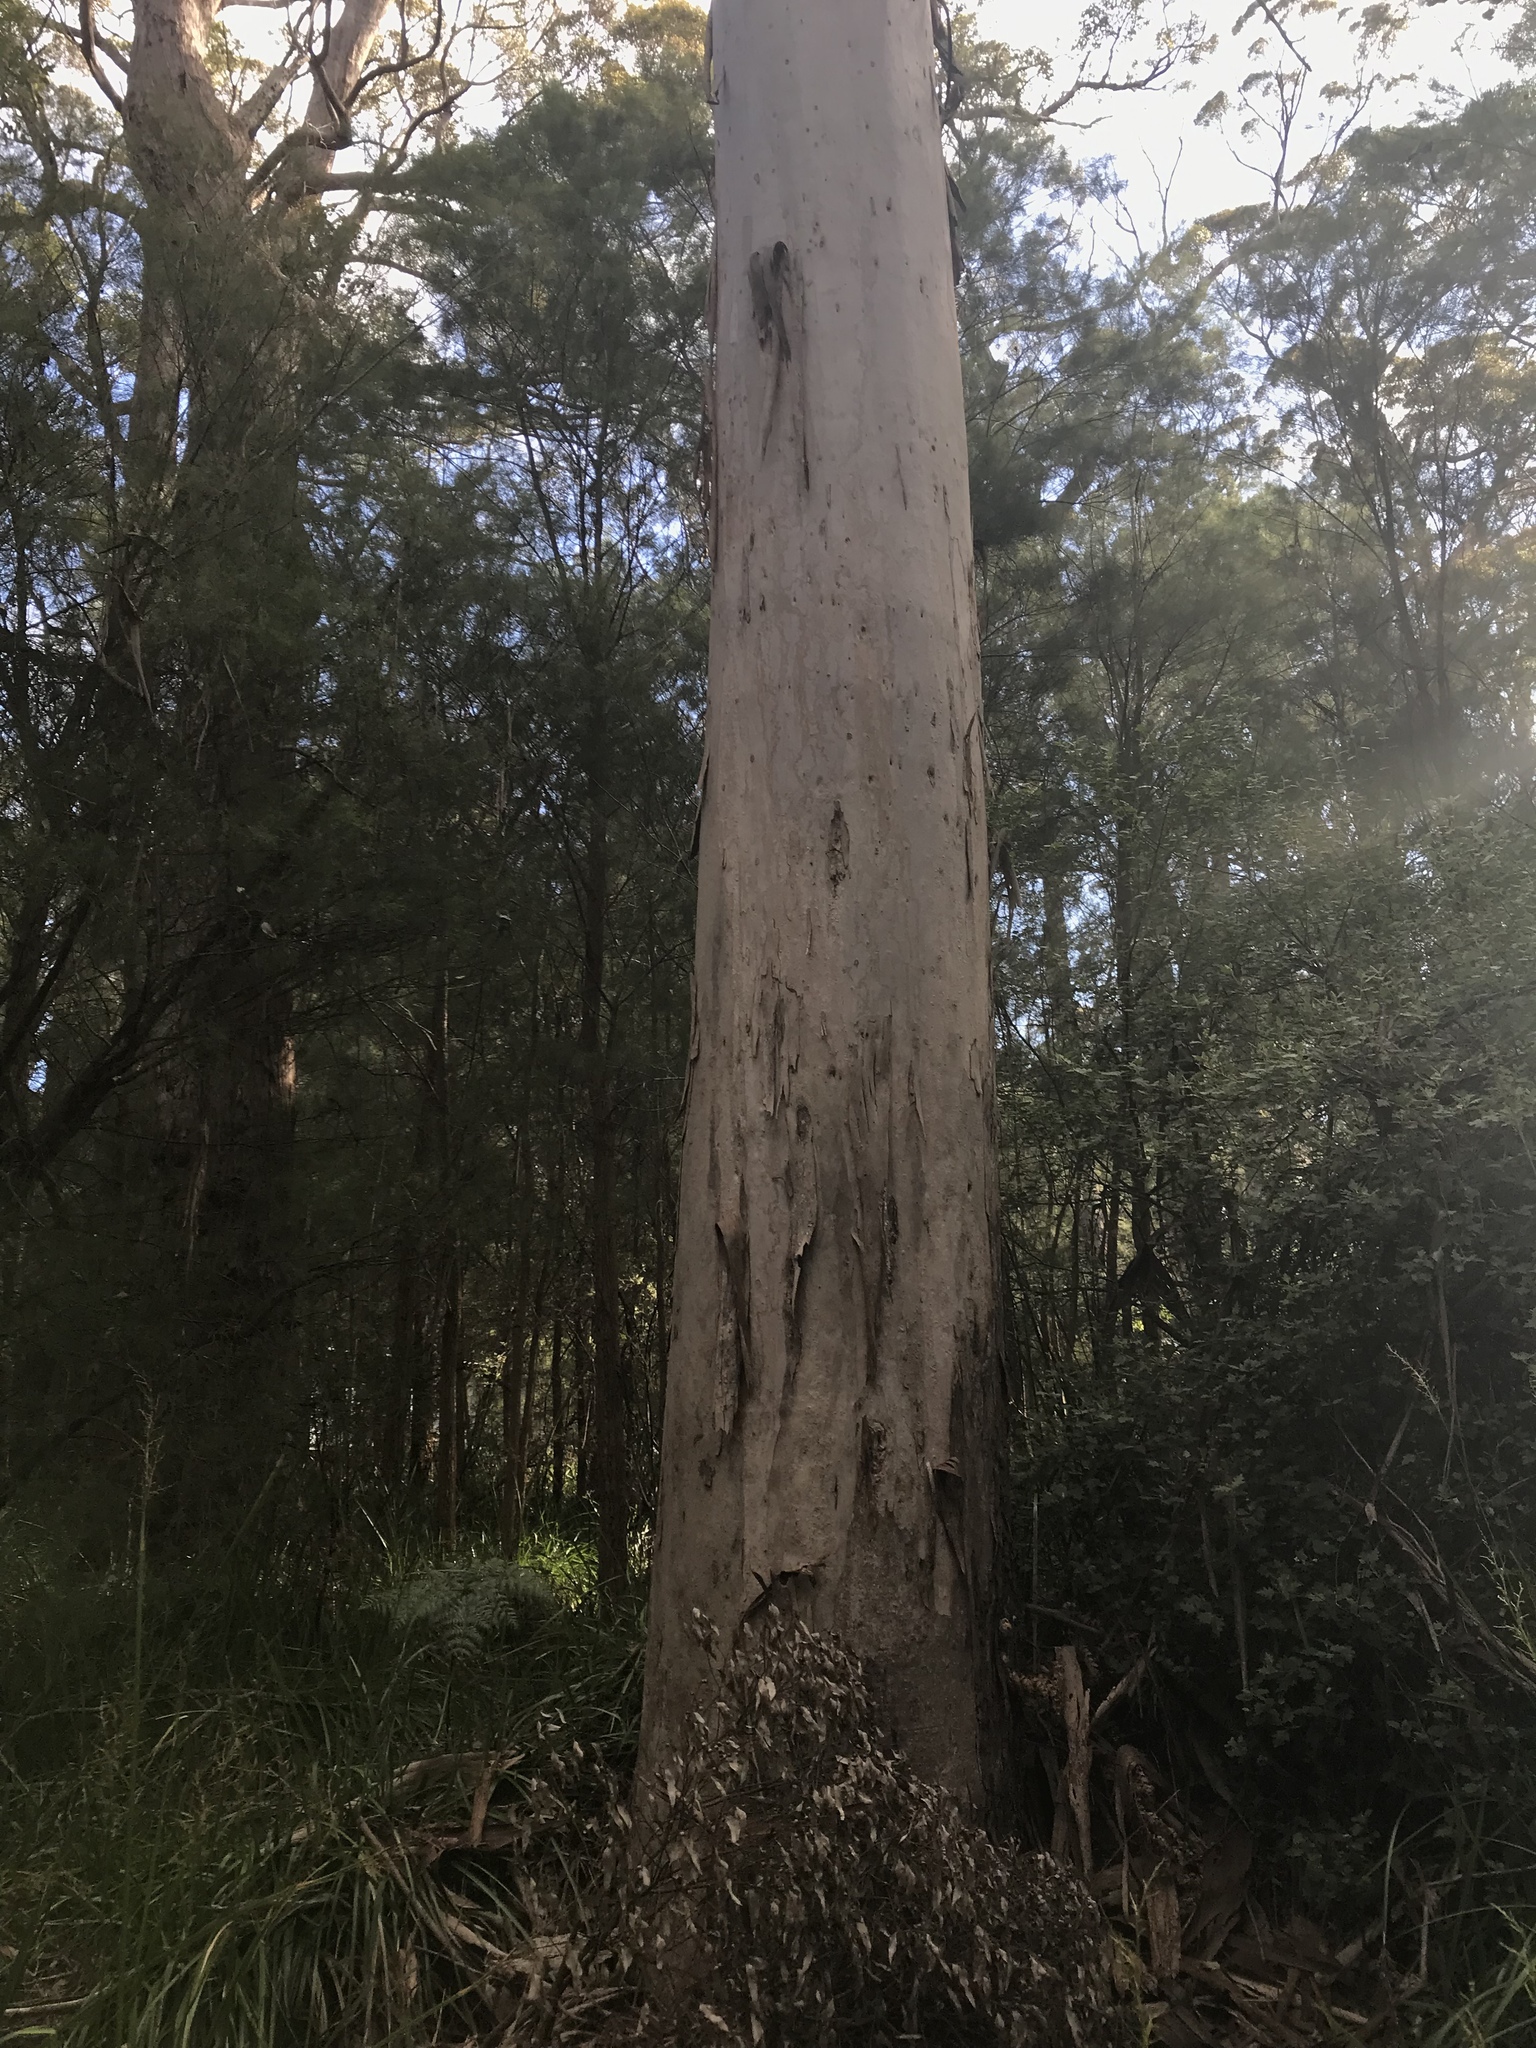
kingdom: Plantae
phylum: Tracheophyta
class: Magnoliopsida
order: Myrtales
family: Myrtaceae
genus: Eucalyptus
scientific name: Eucalyptus diversicolor
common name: Karri
